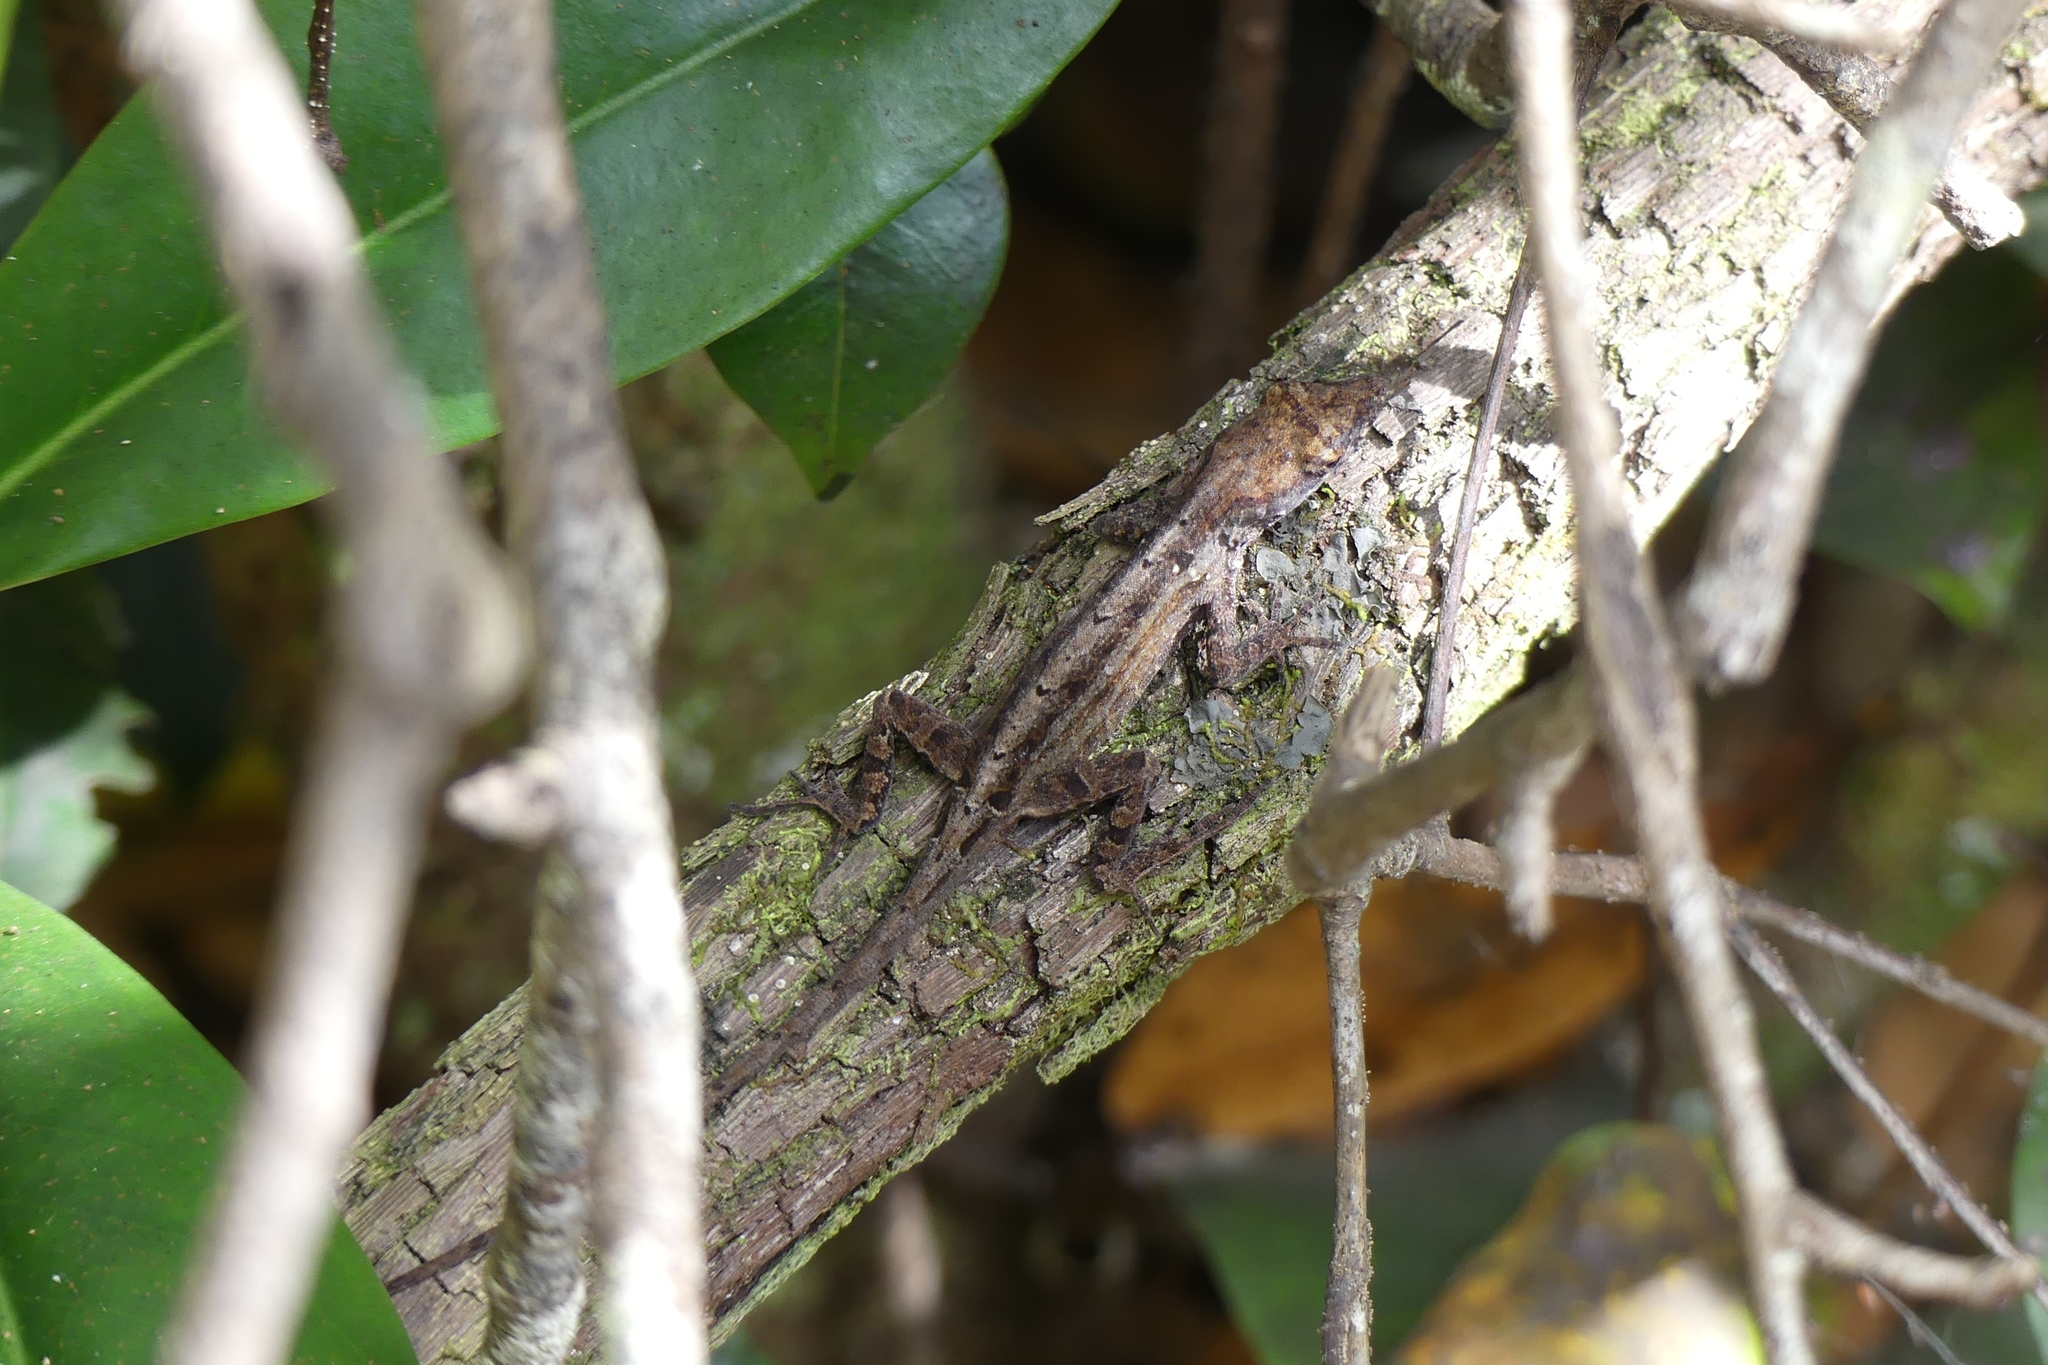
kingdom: Animalia
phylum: Chordata
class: Squamata
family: Dactyloidae
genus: Anolis
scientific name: Anolis sagrei
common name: Brown anole
